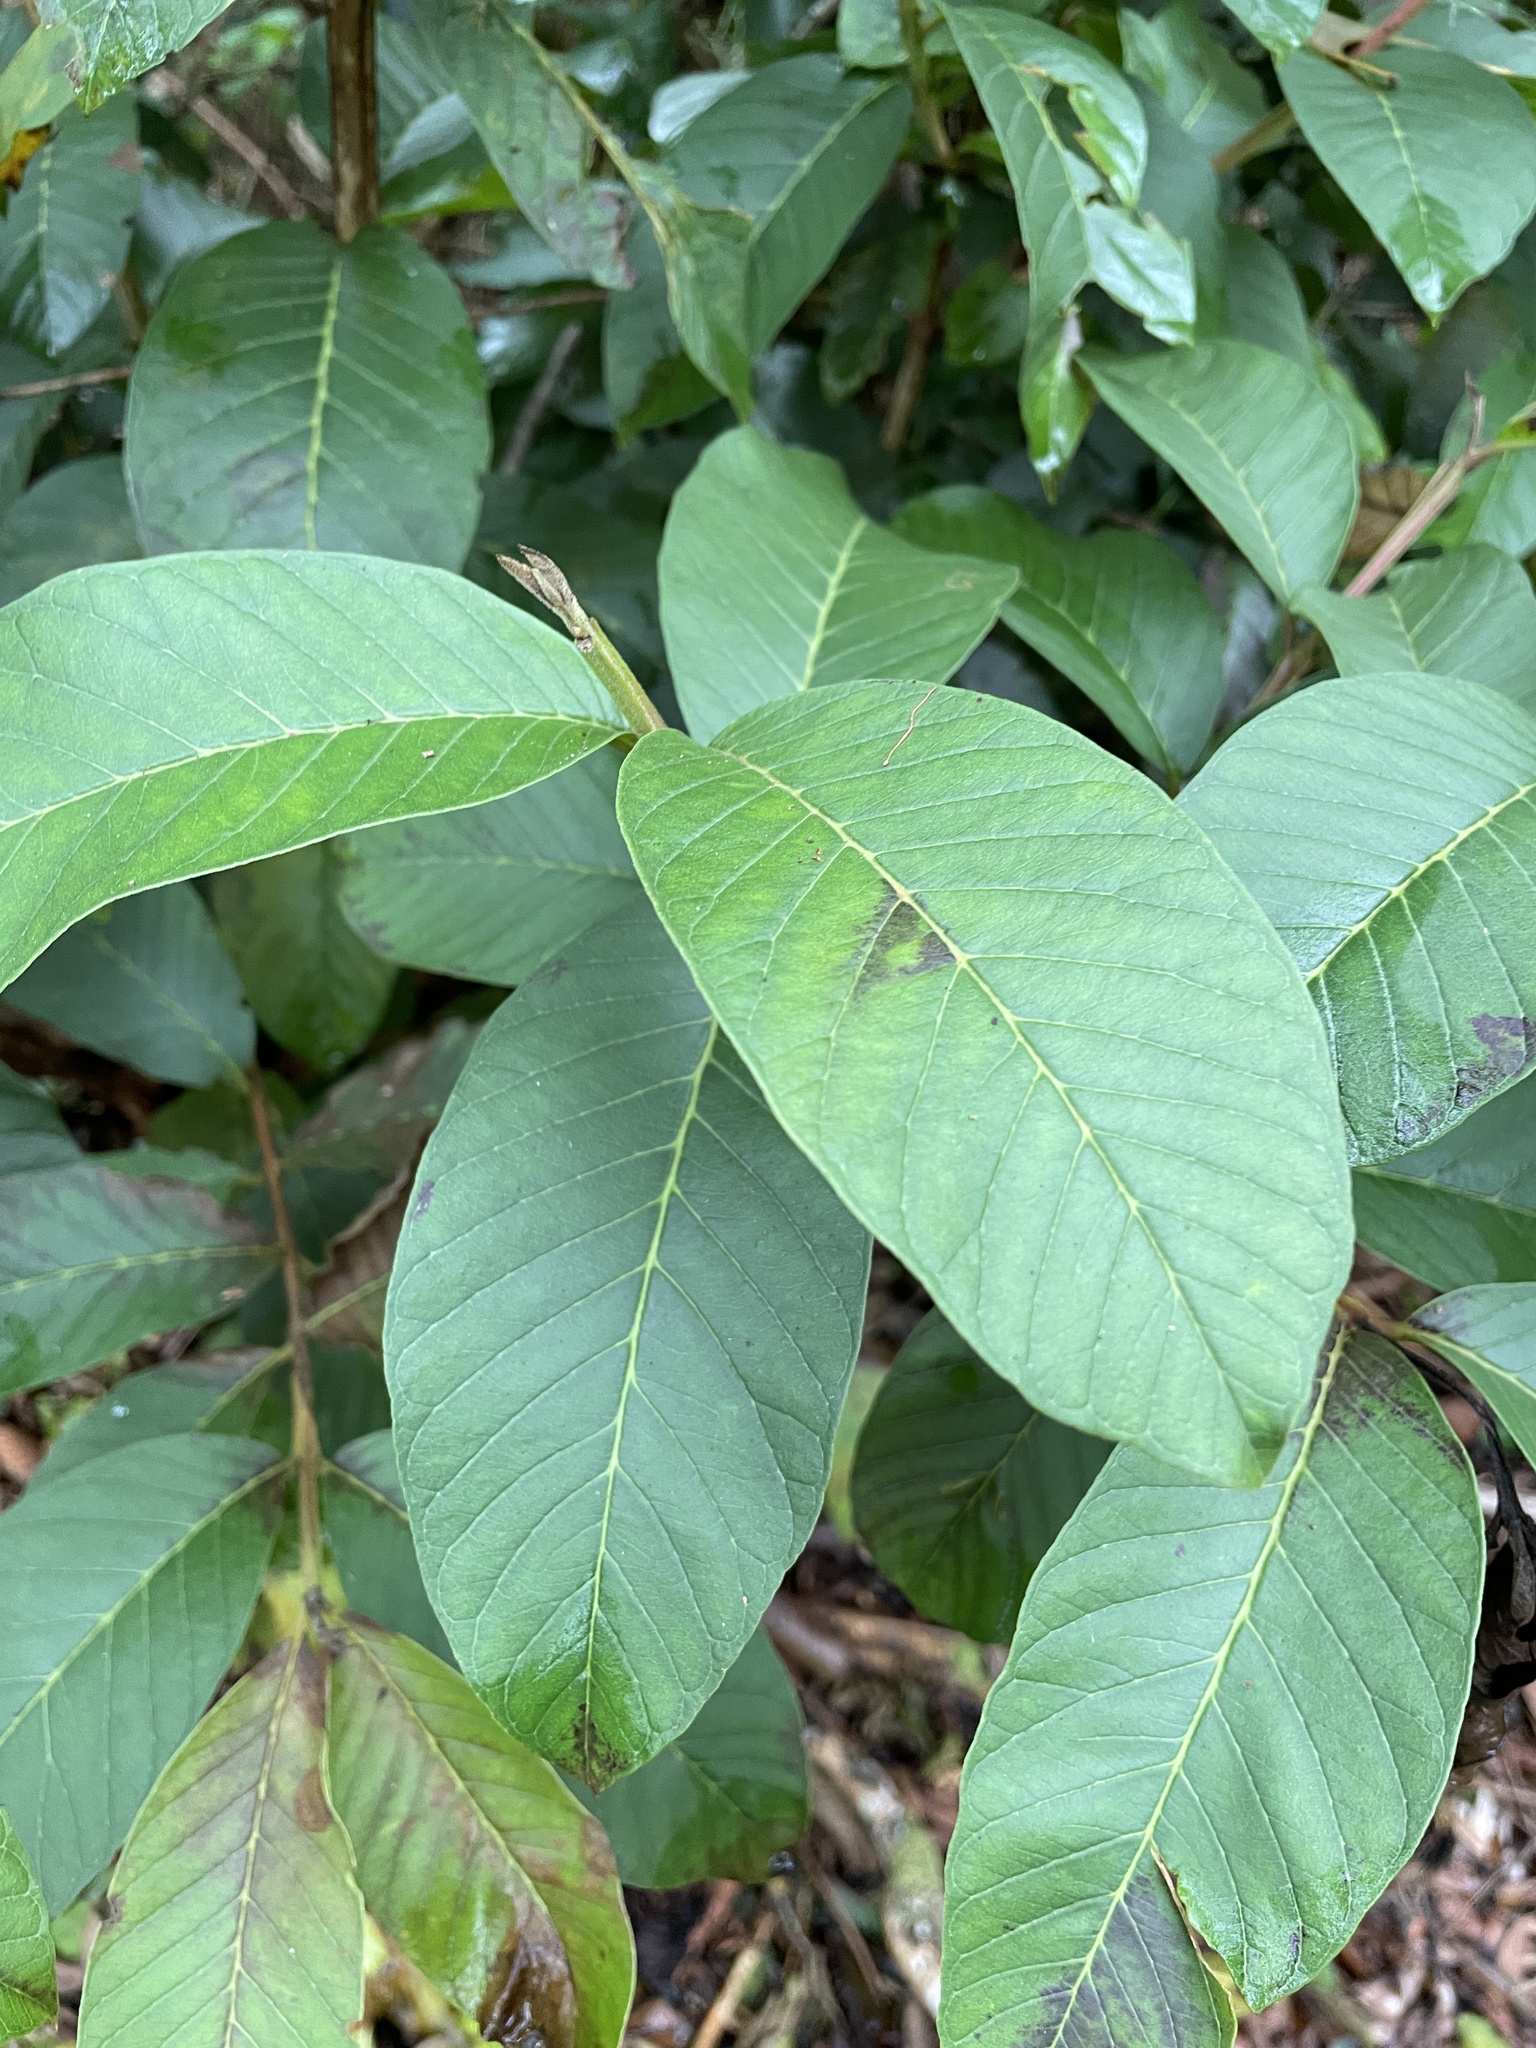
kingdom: Plantae
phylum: Tracheophyta
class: Magnoliopsida
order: Myrtales
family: Myrtaceae
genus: Psidium
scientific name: Psidium guajava
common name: Guava
